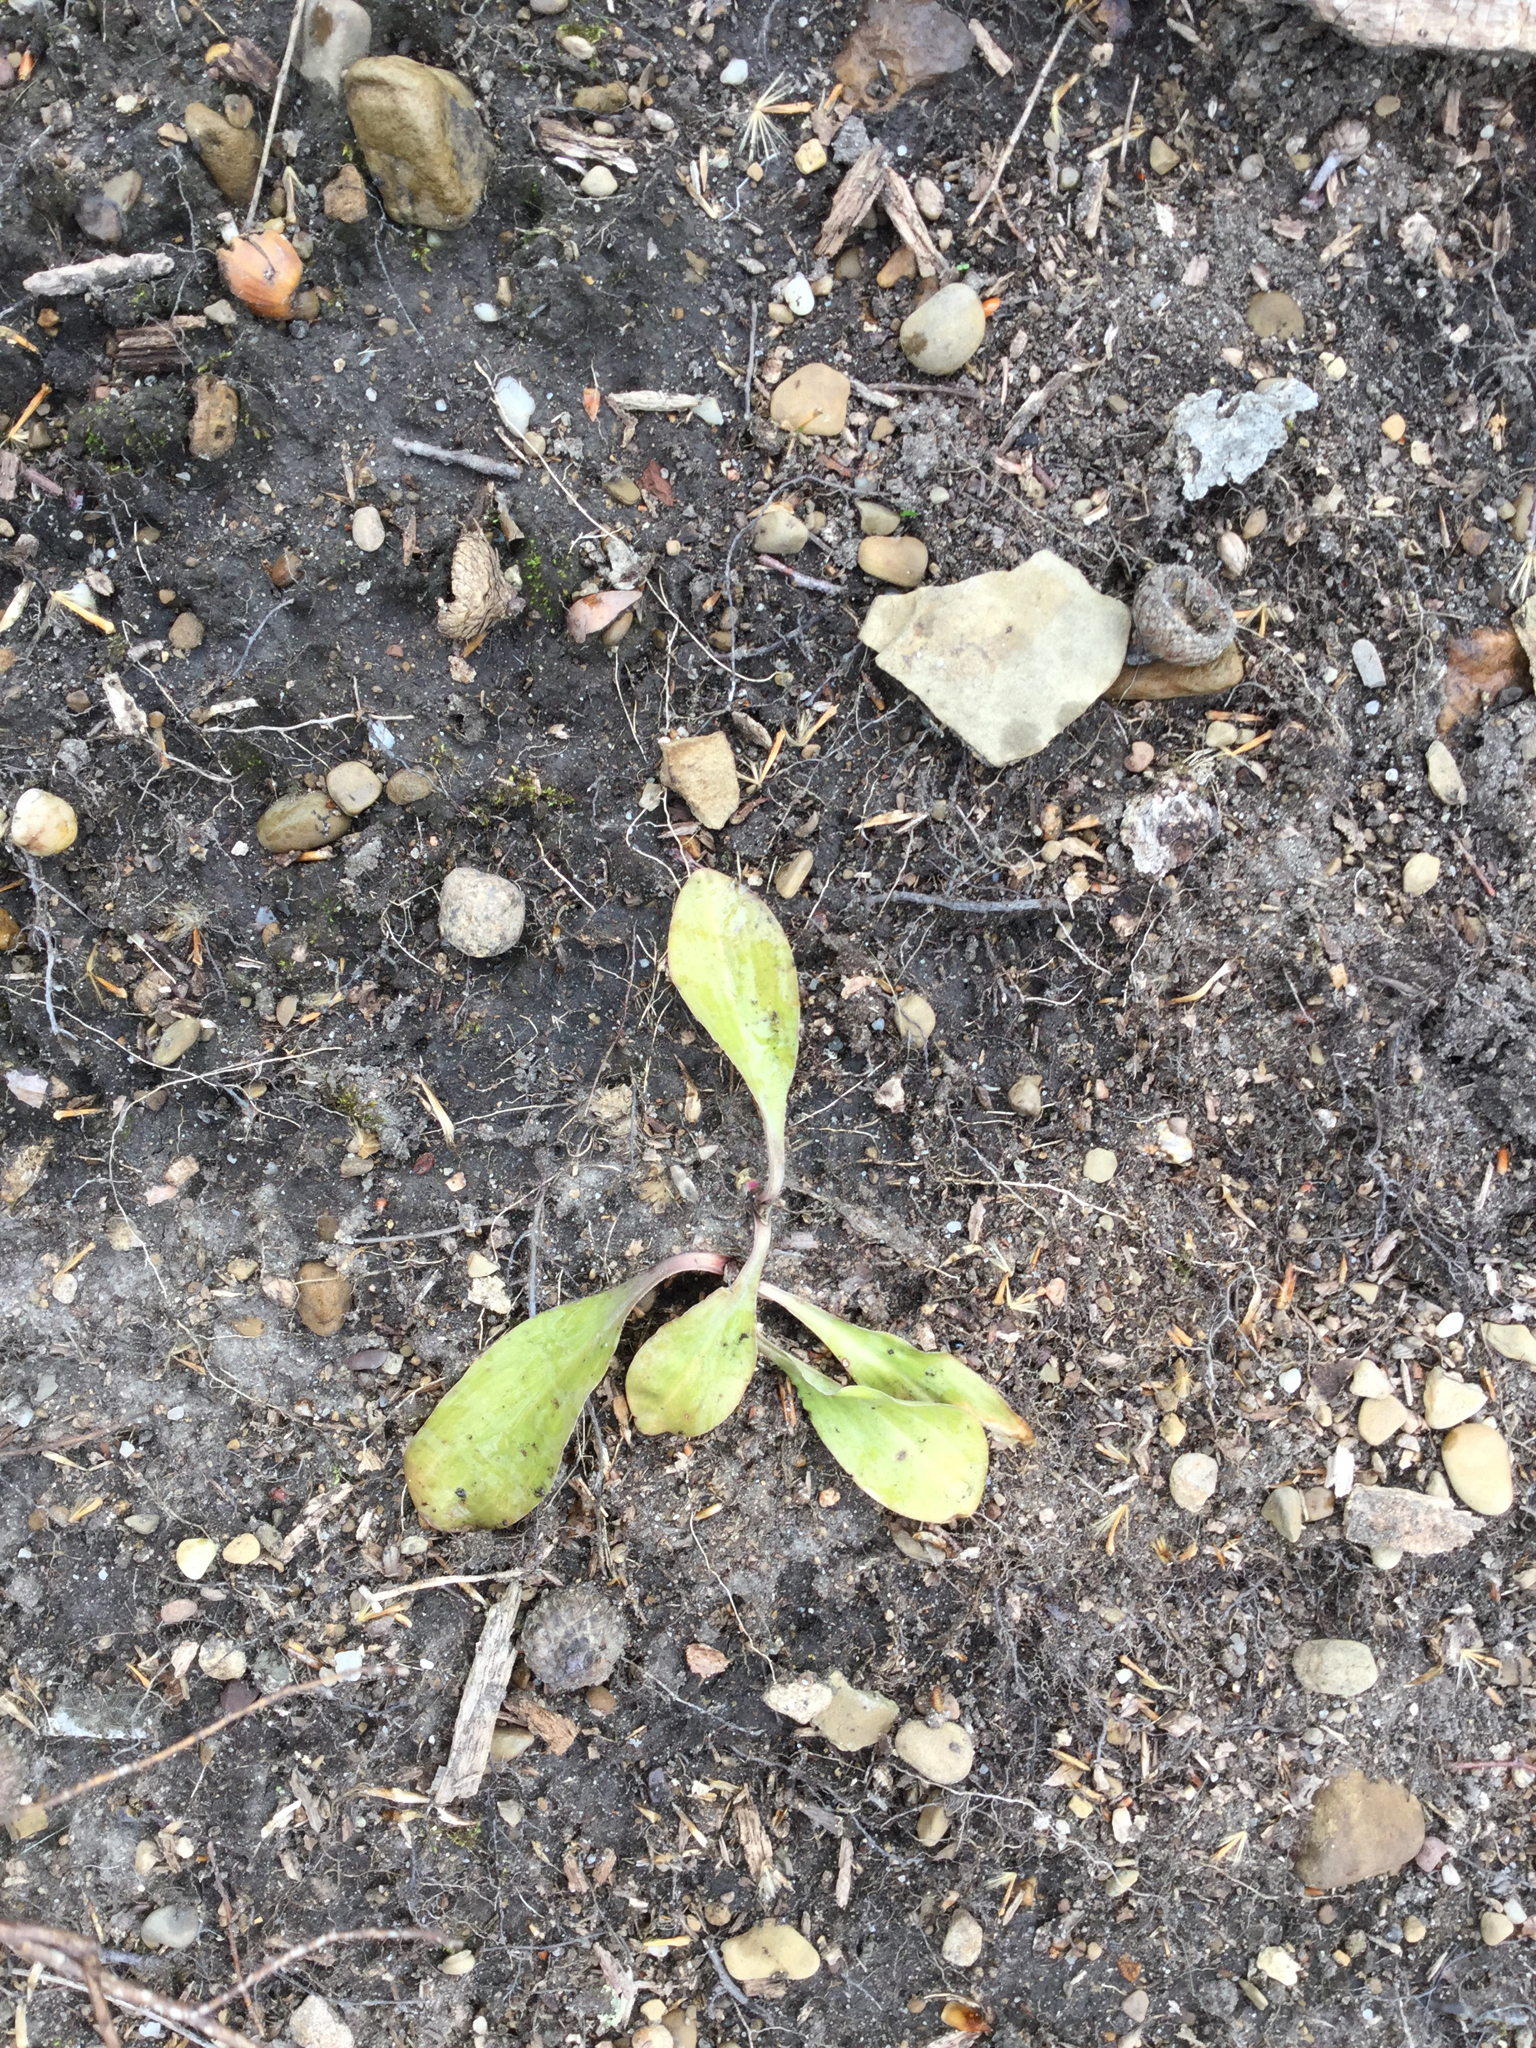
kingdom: Plantae
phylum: Tracheophyta
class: Liliopsida
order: Liliales
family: Melanthiaceae
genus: Chamaelirium
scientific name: Chamaelirium luteum
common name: Fairy-wand
